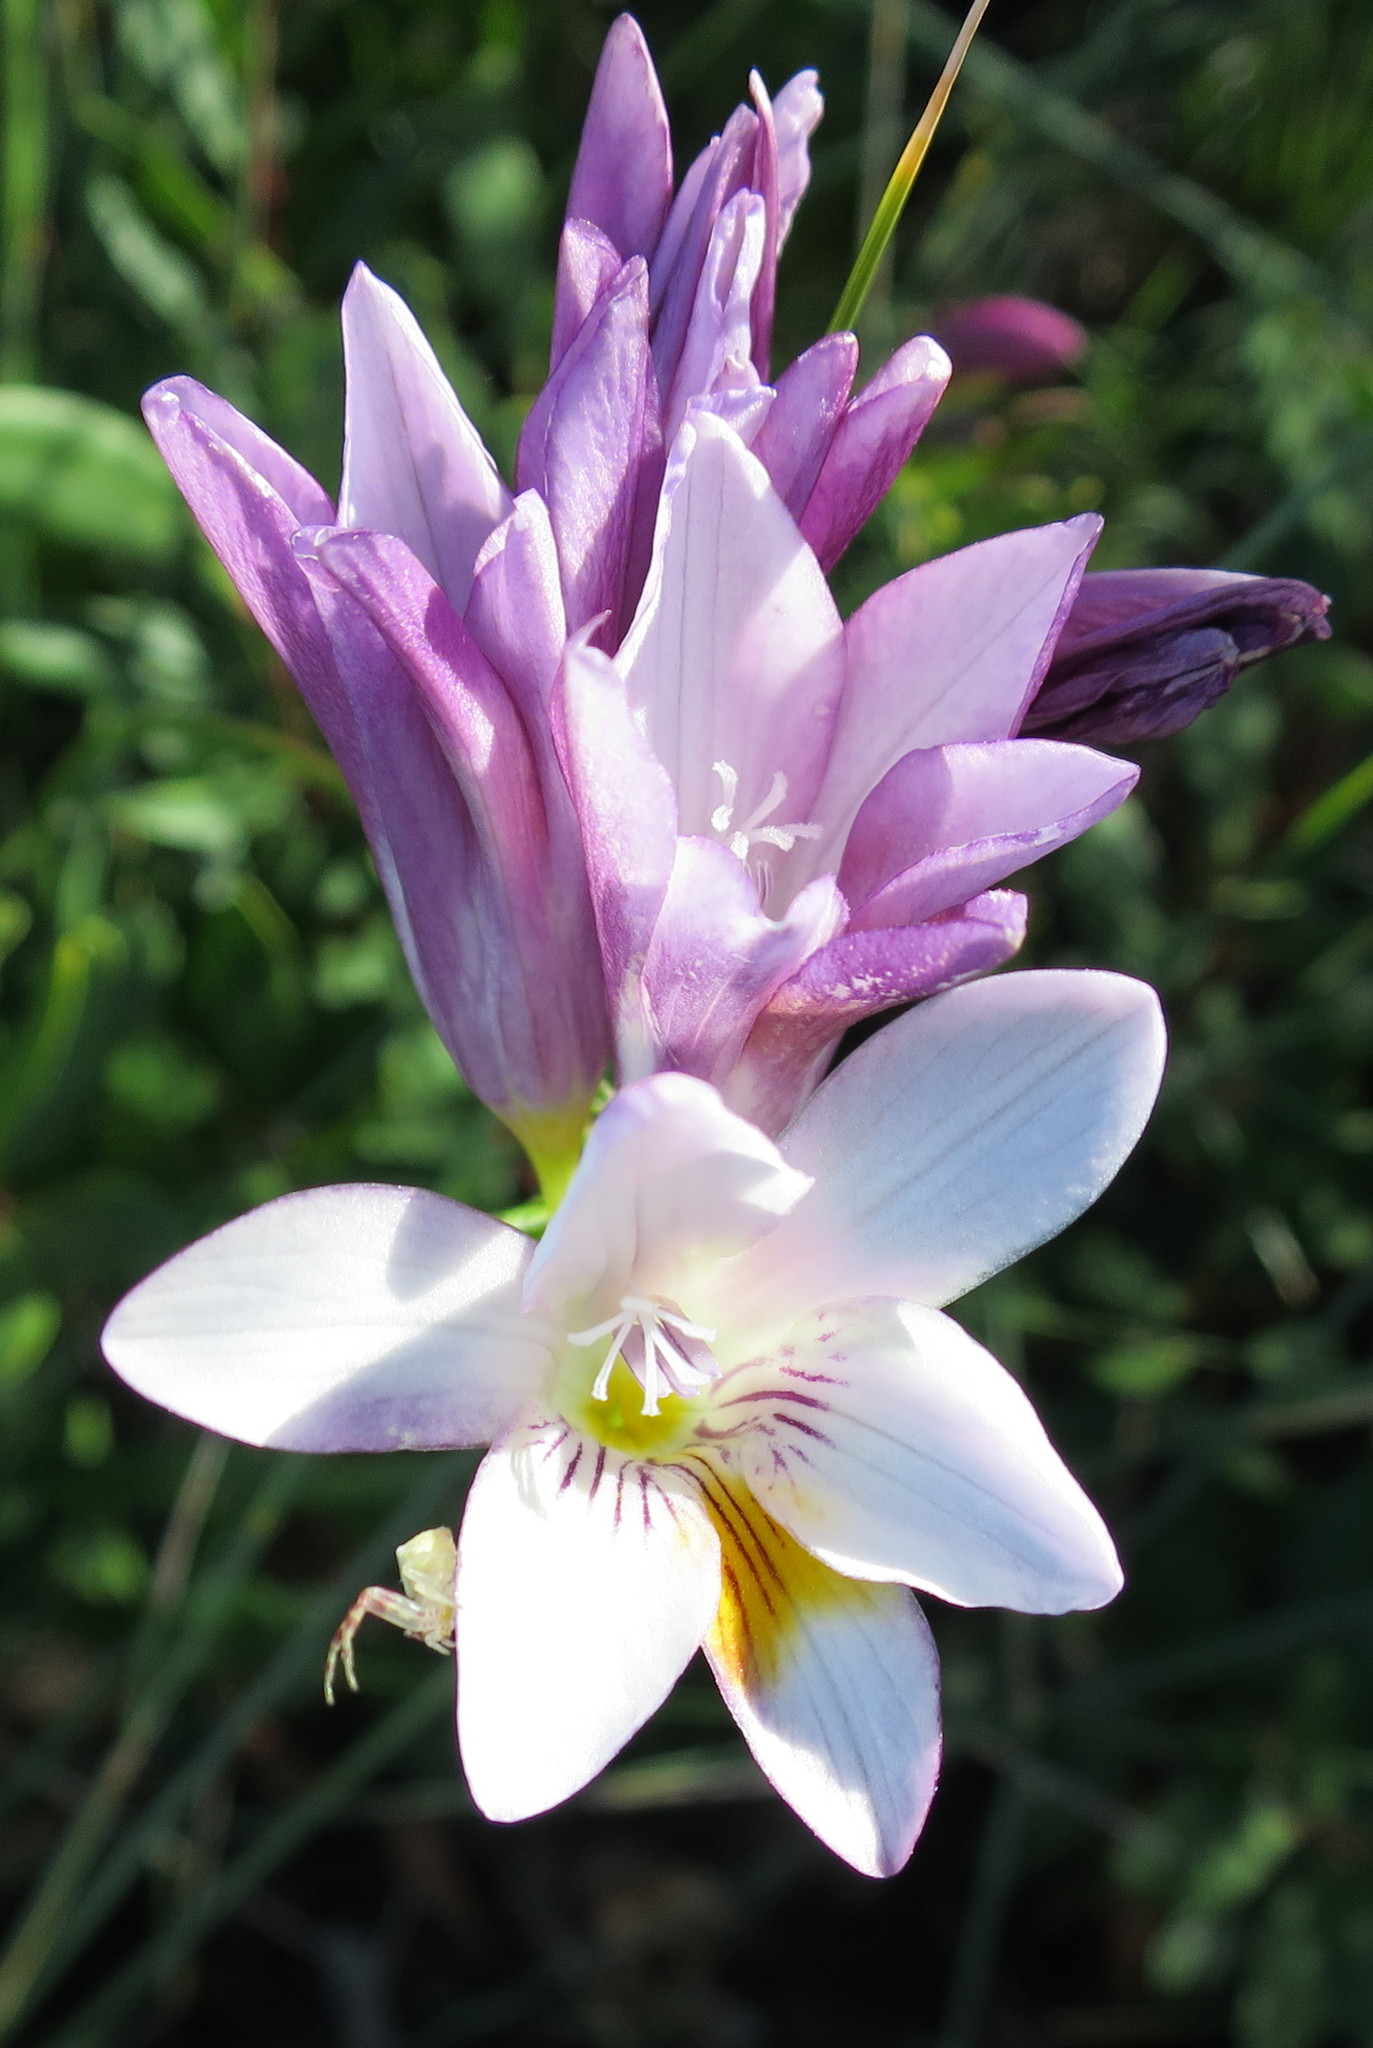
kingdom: Plantae
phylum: Tracheophyta
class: Liliopsida
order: Asparagales
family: Iridaceae
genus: Freesia
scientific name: Freesia leichtlinii
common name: Freesia
